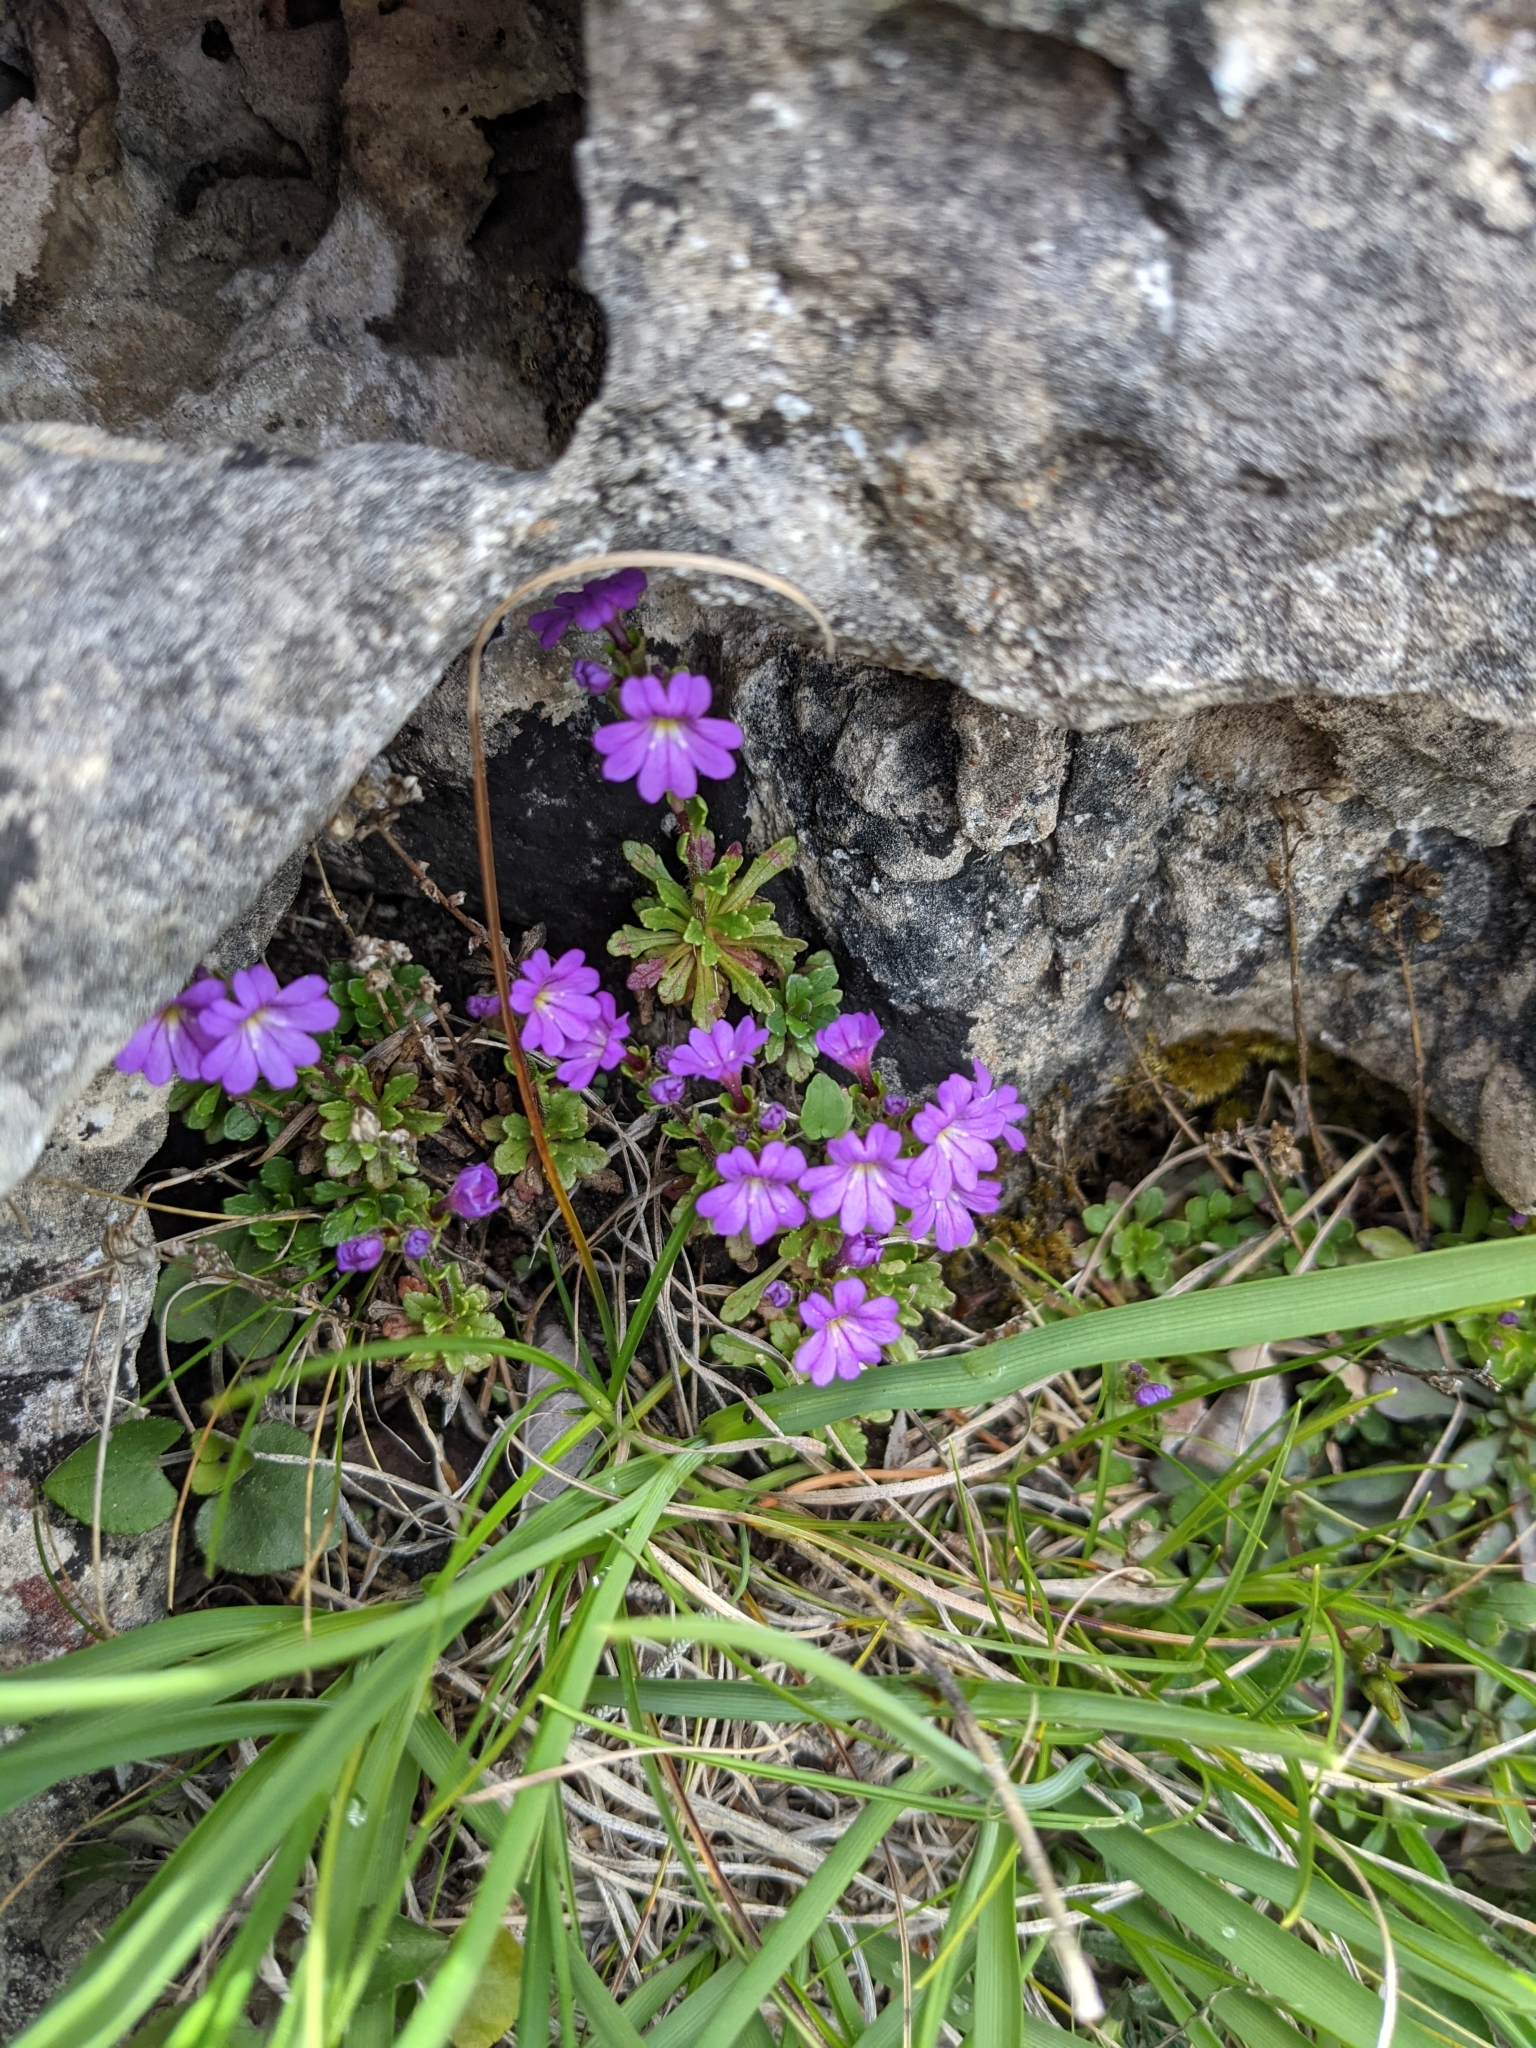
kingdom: Plantae
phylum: Tracheophyta
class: Magnoliopsida
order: Lamiales
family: Plantaginaceae
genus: Erinus
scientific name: Erinus alpinus
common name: Fairy foxglove
